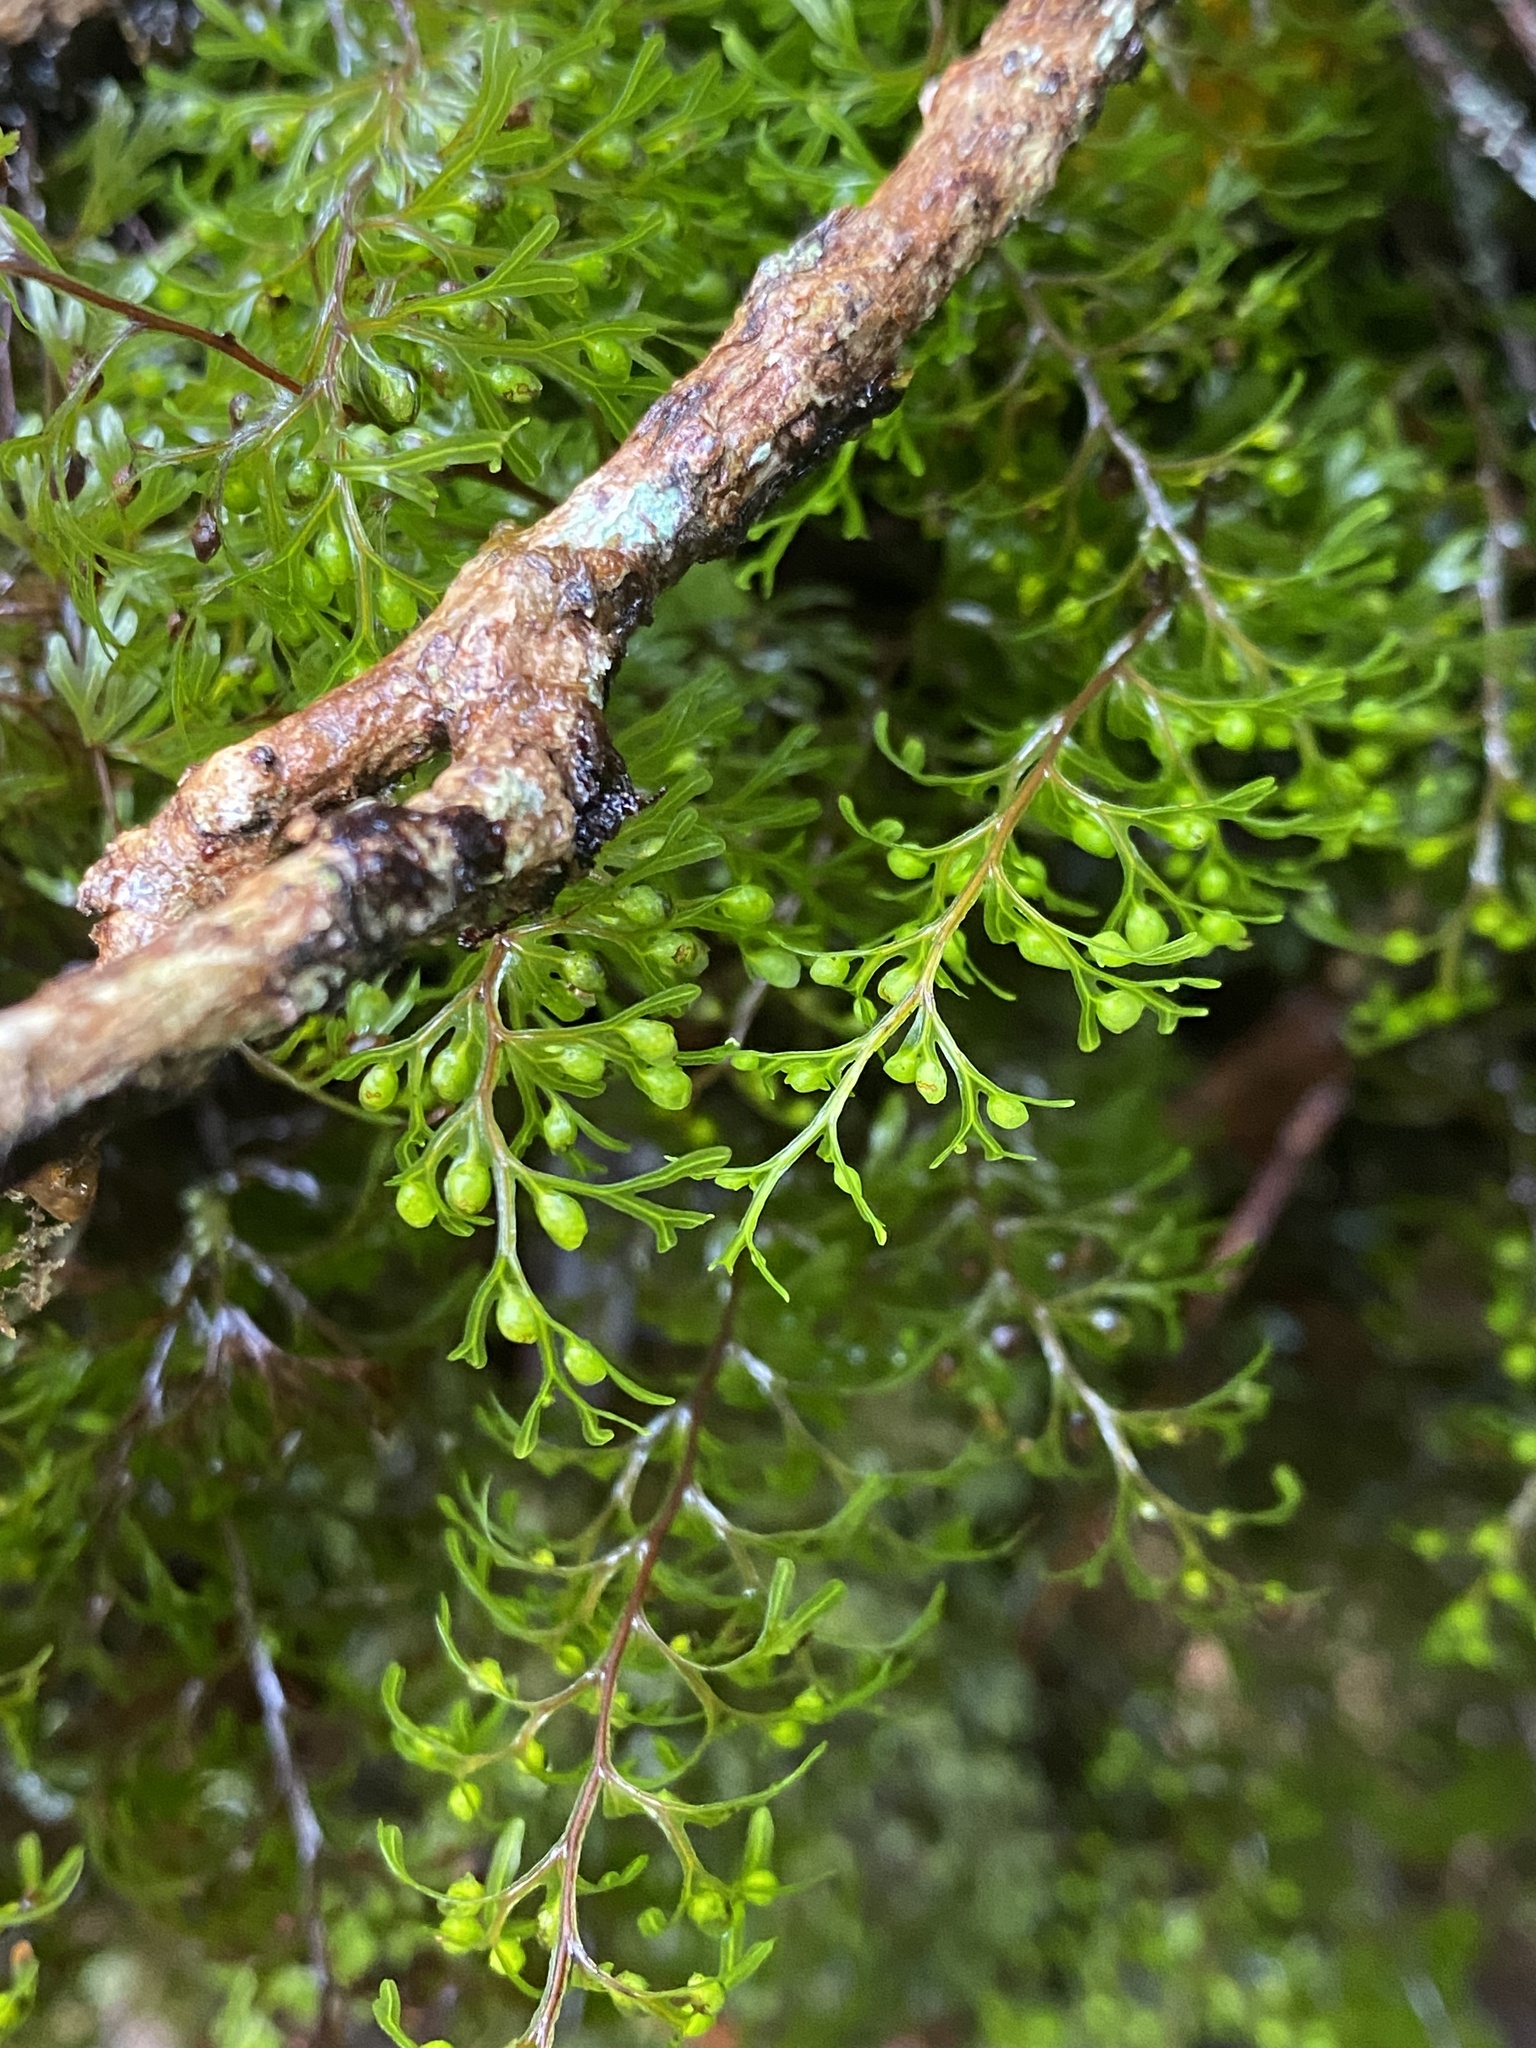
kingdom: Plantae
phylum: Tracheophyta
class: Polypodiopsida
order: Hymenophyllales
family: Hymenophyllaceae
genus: Hymenophyllum
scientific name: Hymenophyllum recurvum
